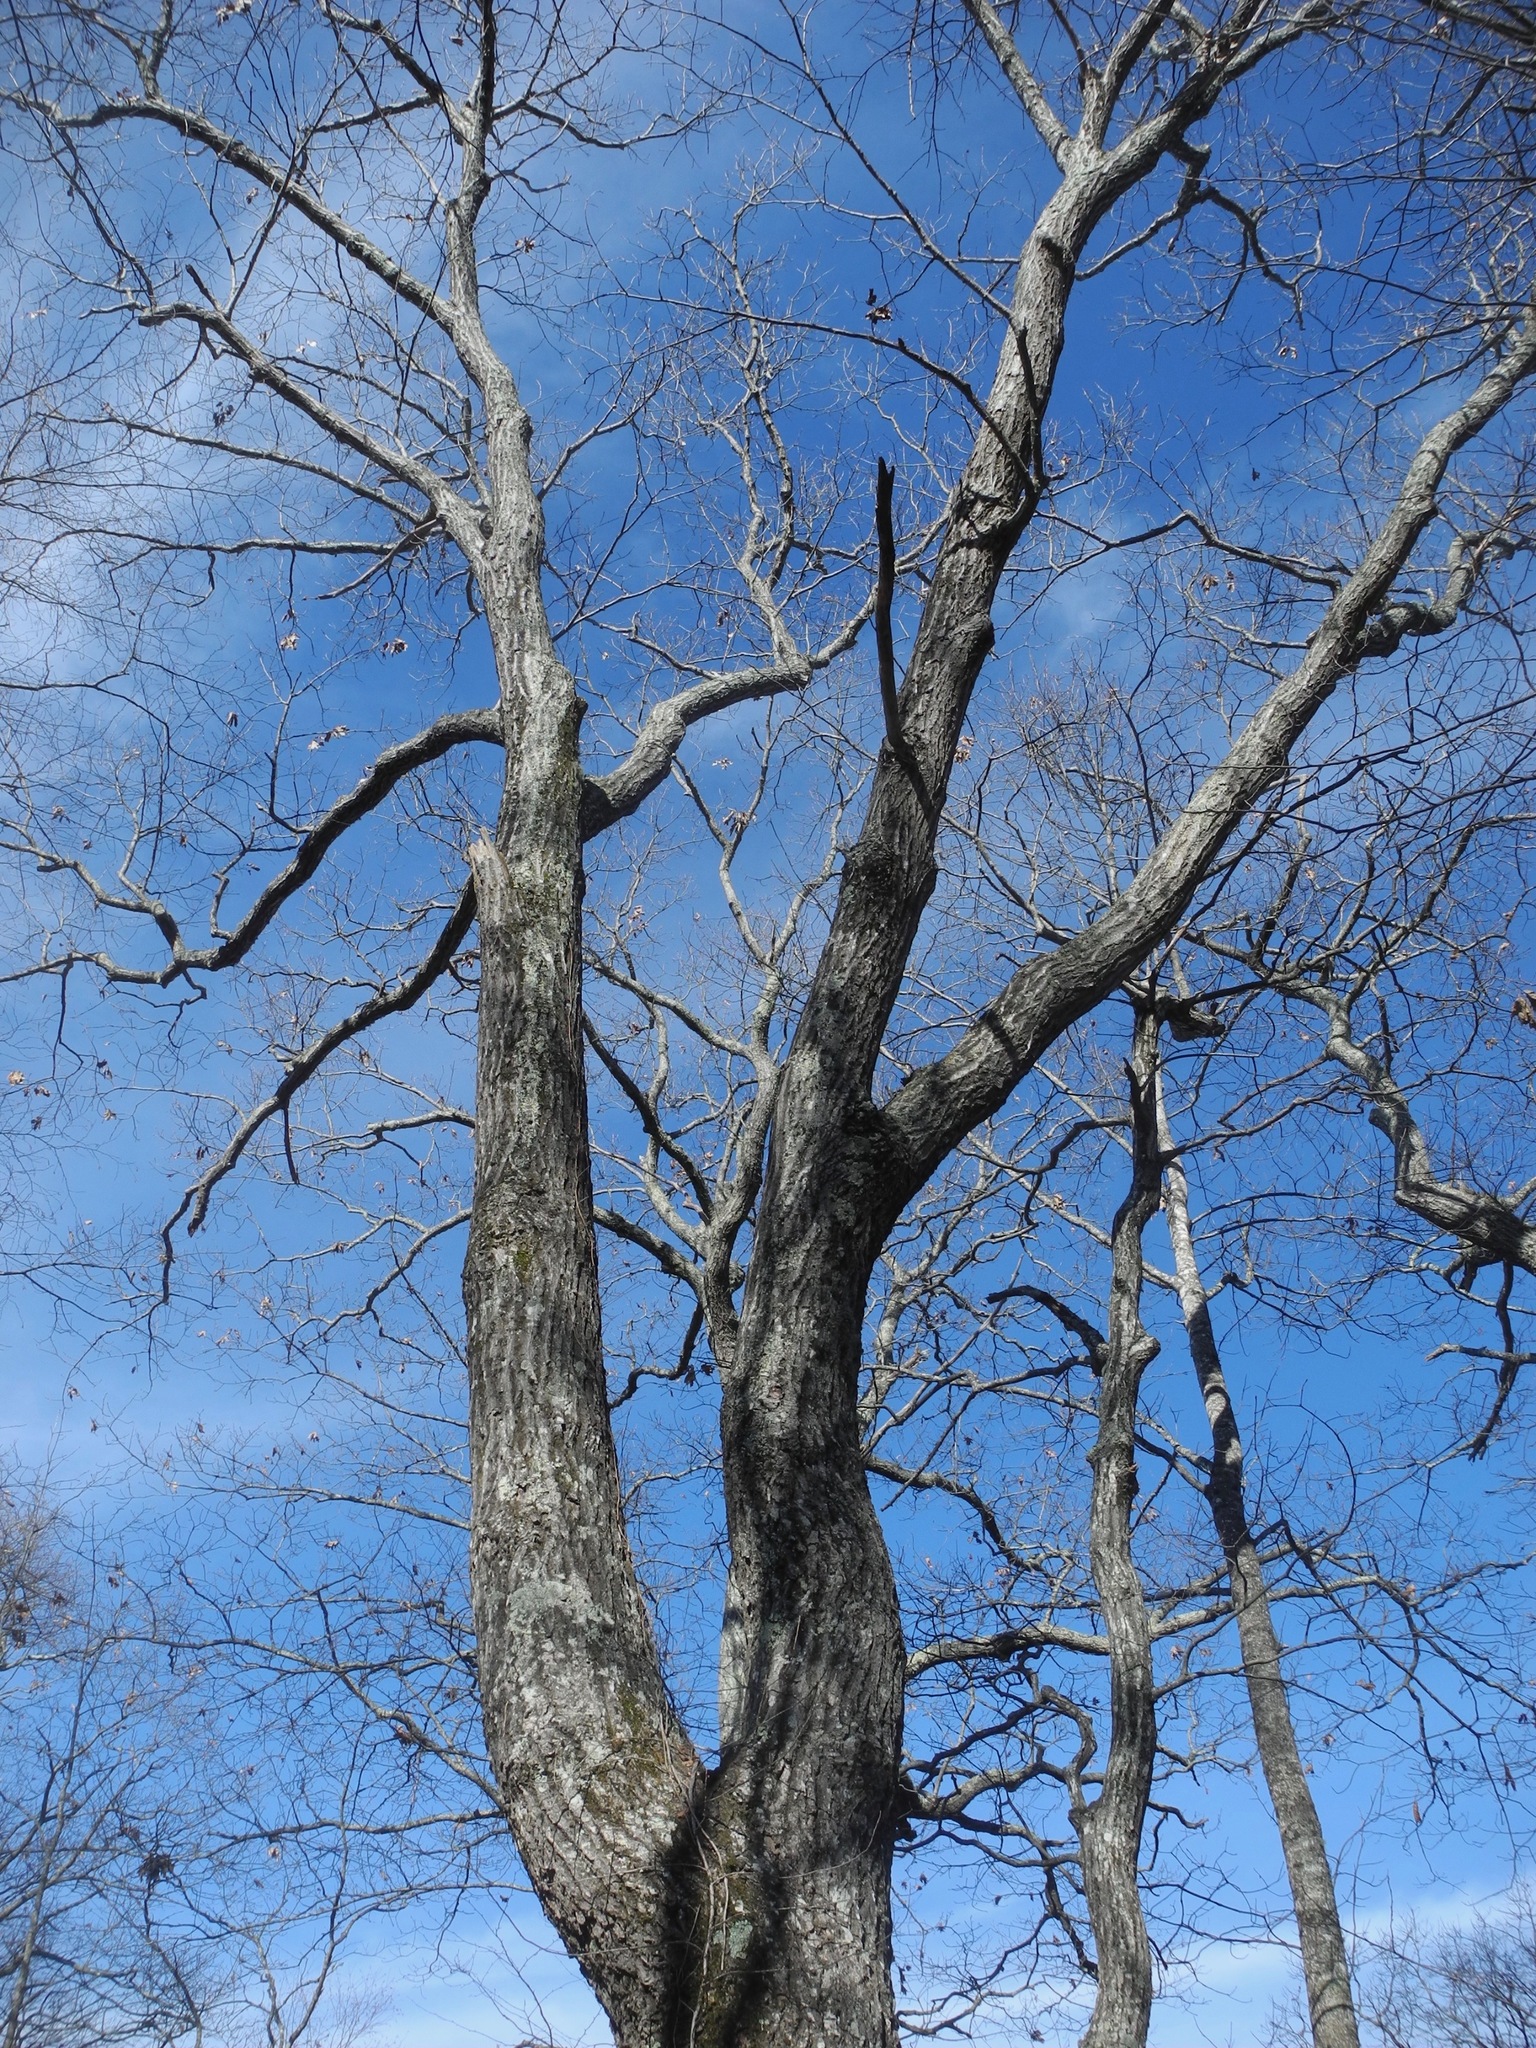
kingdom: Plantae
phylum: Tracheophyta
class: Magnoliopsida
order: Fagales
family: Fagaceae
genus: Quercus
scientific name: Quercus rubra
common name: Red oak
